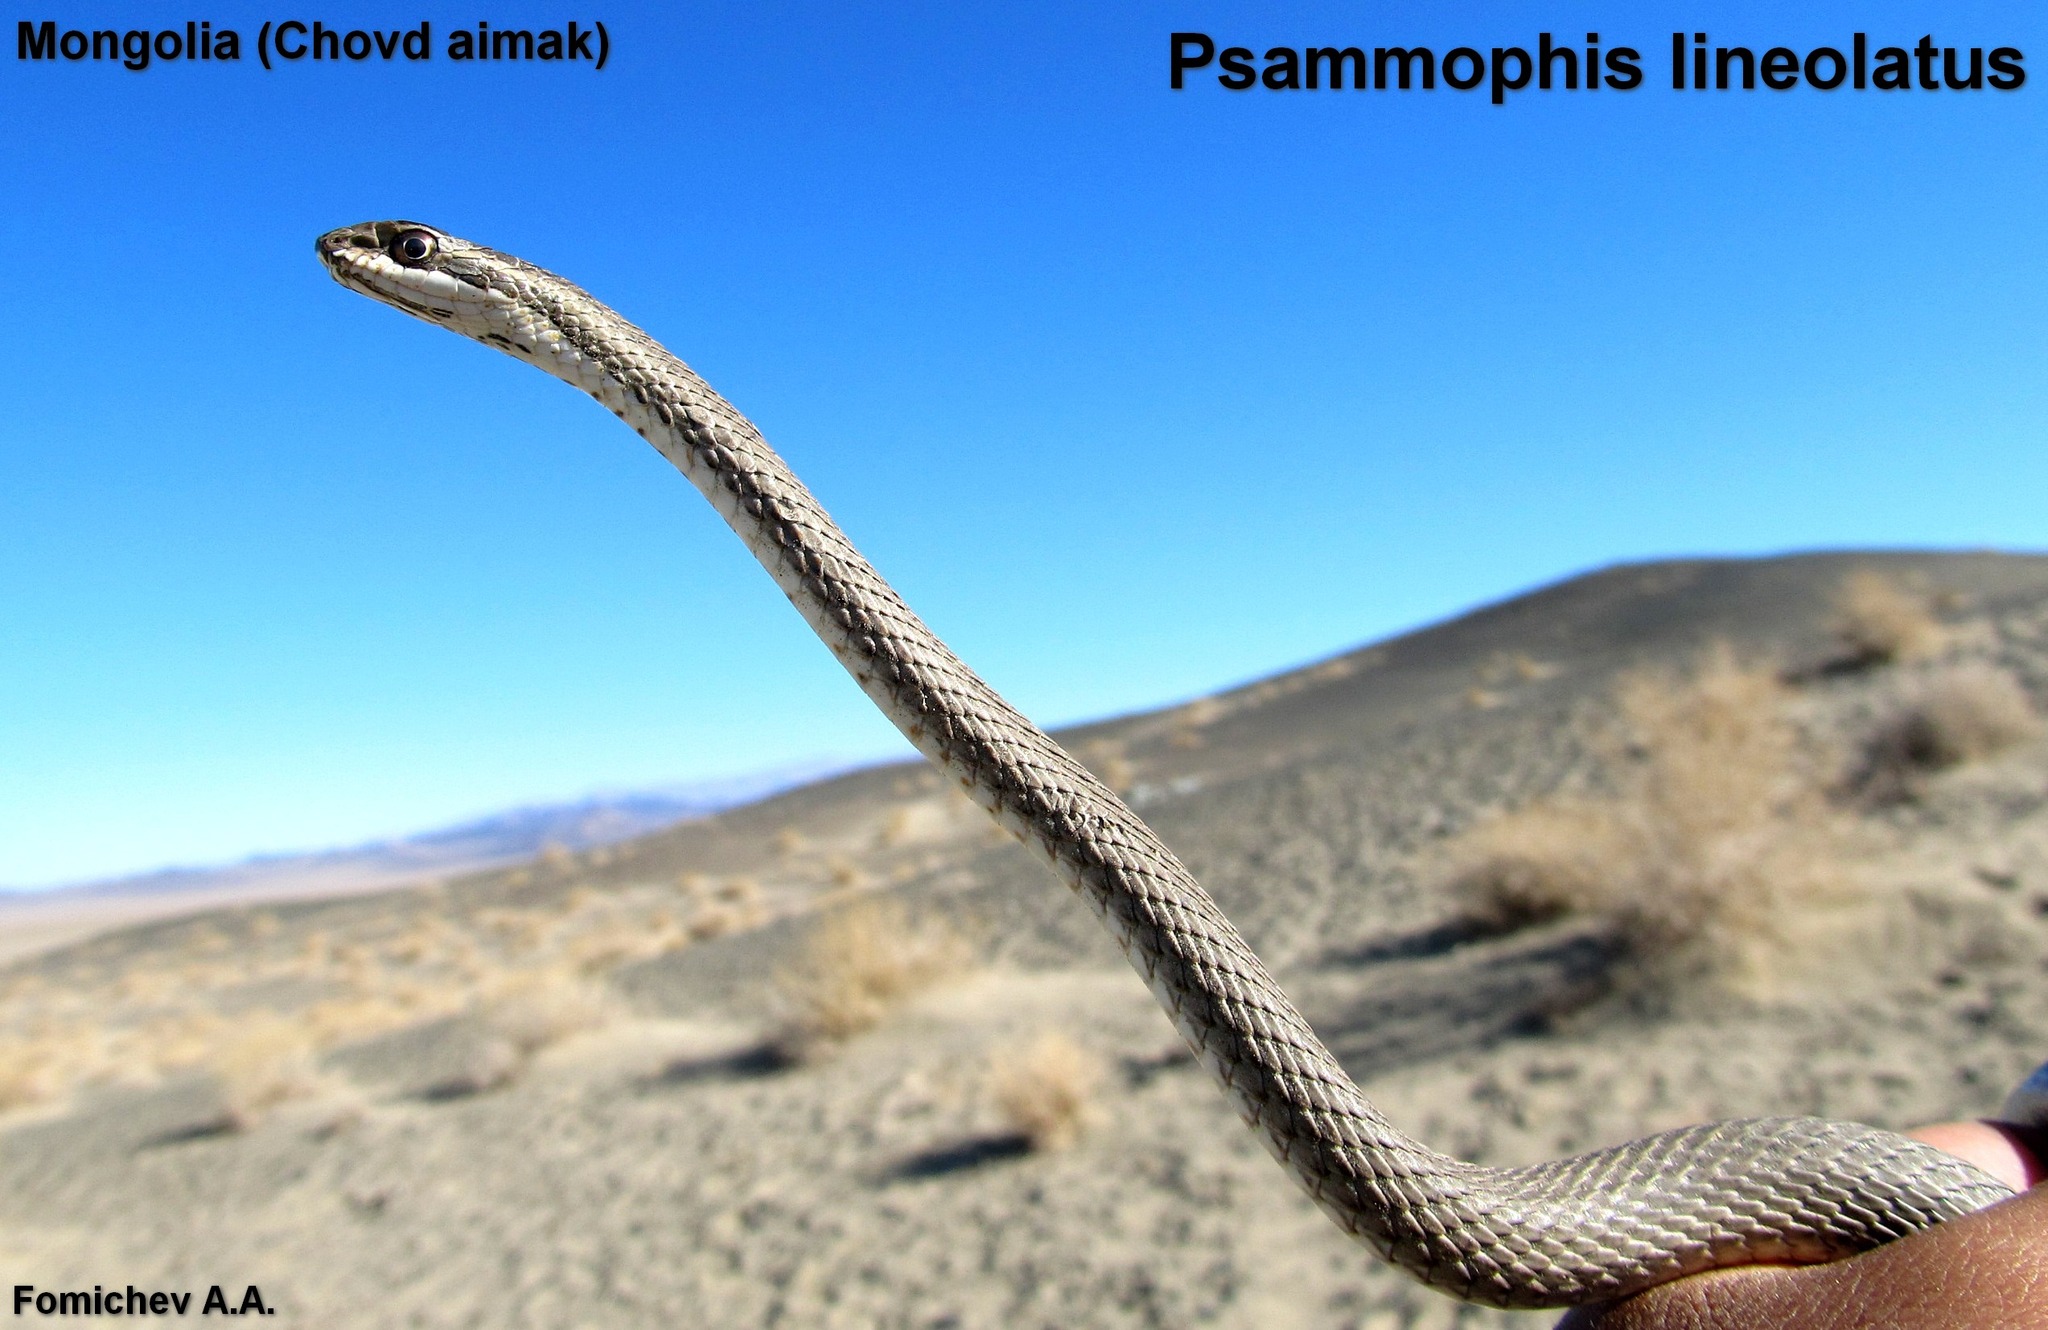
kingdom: Animalia
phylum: Chordata
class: Squamata
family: Psammophiidae
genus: Psammophis
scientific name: Psammophis lineolatus
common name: Steppe ribbon racer
